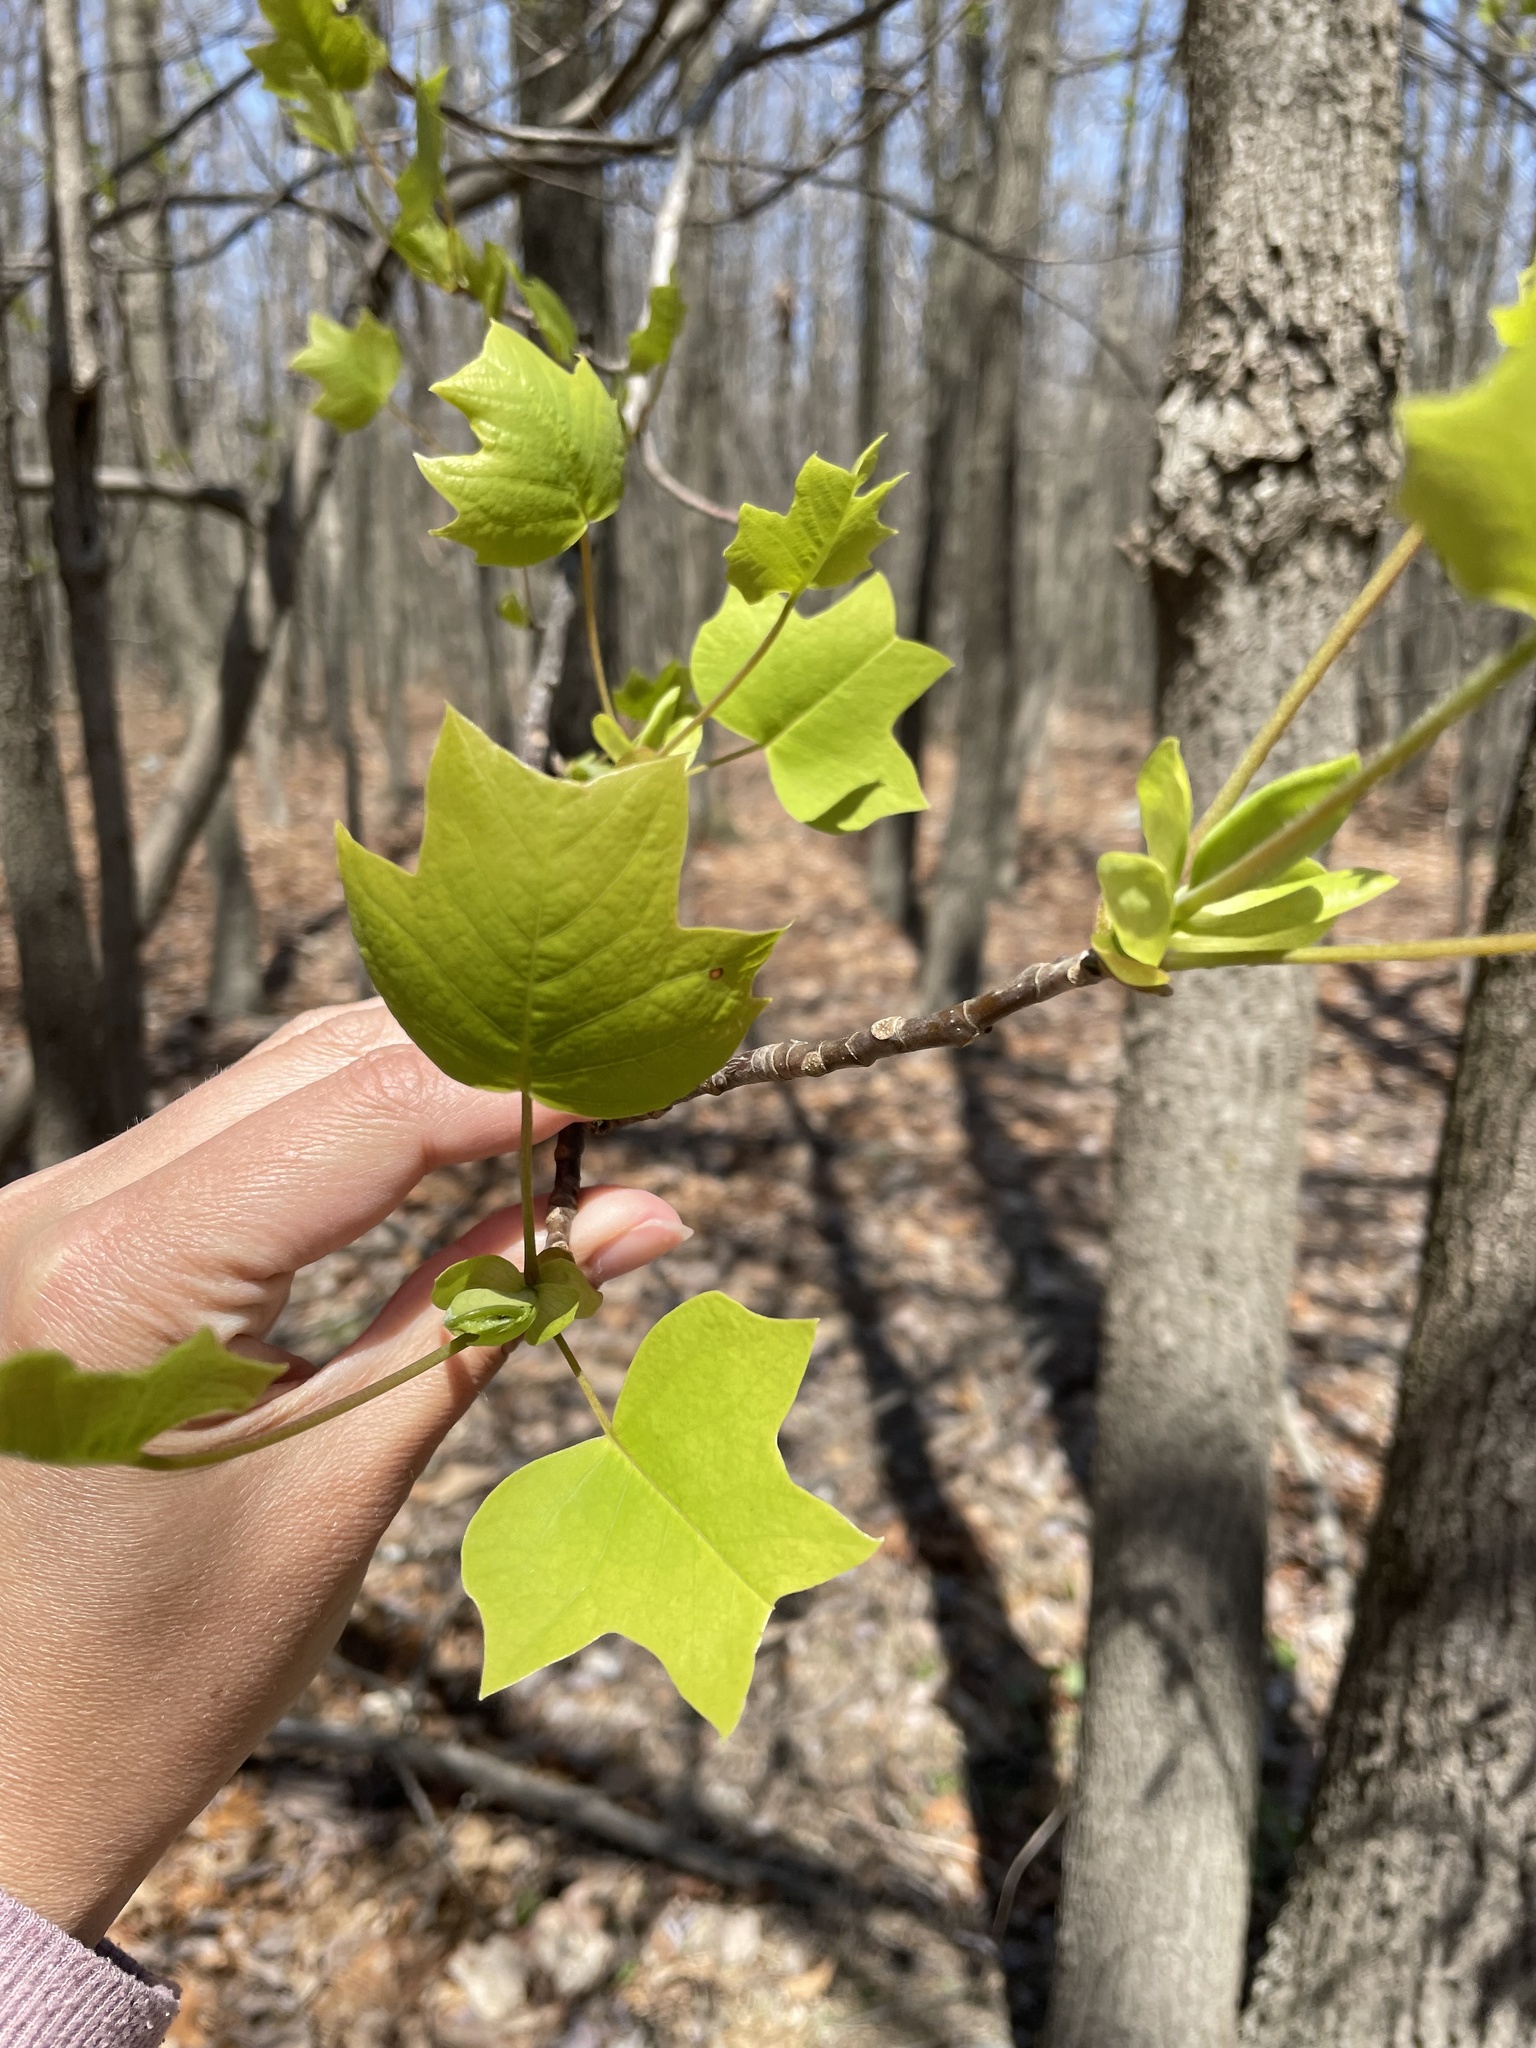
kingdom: Plantae
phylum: Tracheophyta
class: Magnoliopsida
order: Magnoliales
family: Magnoliaceae
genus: Liriodendron
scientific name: Liriodendron tulipifera
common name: Tulip tree
